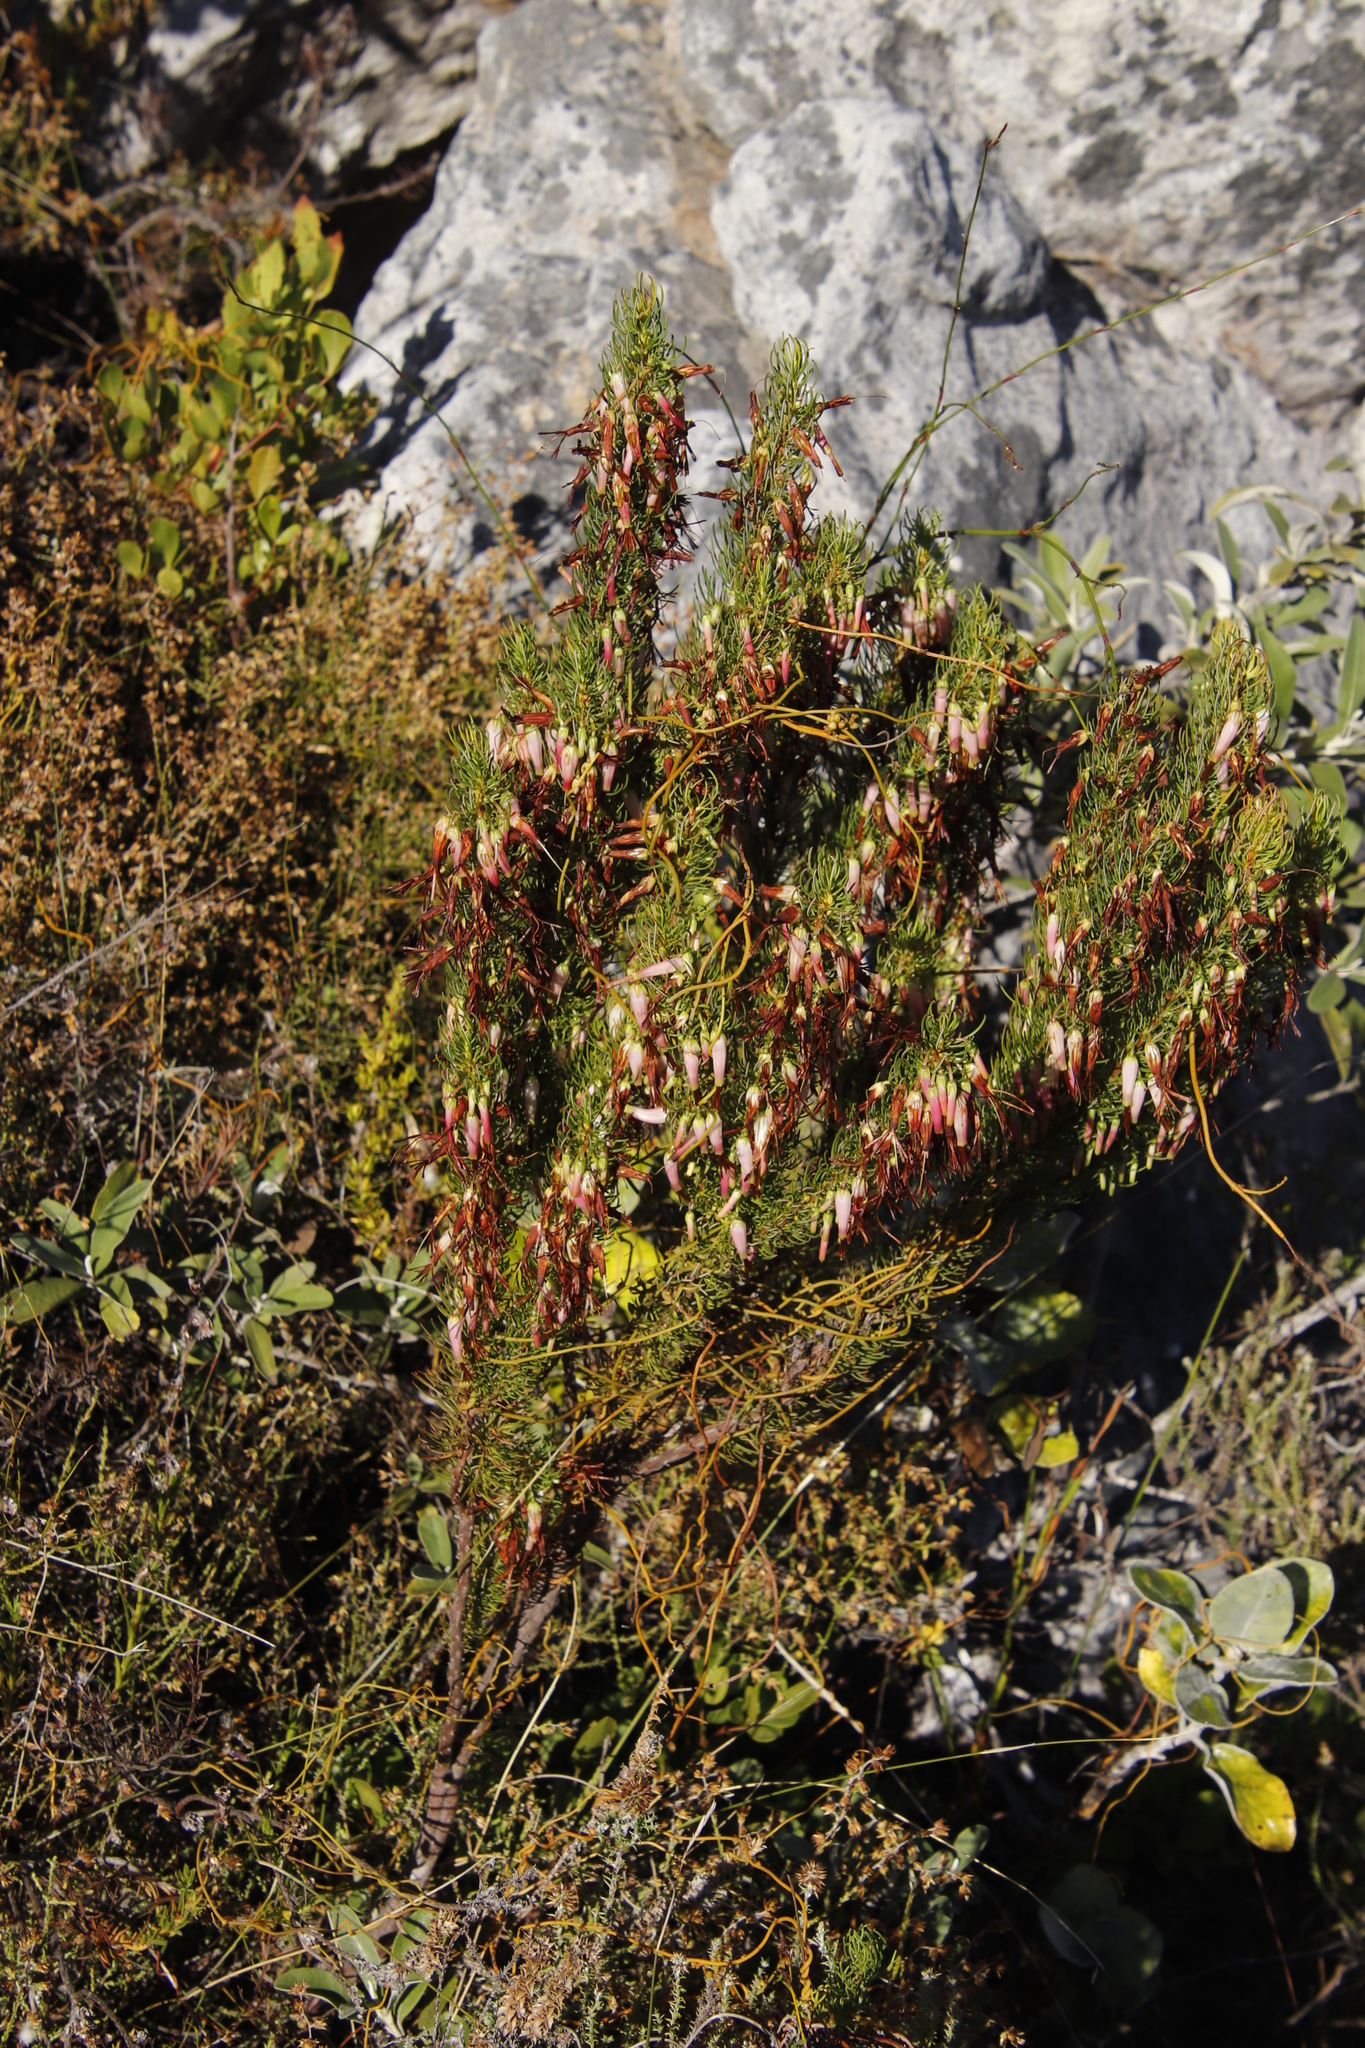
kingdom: Plantae
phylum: Tracheophyta
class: Magnoliopsida
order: Ericales
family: Ericaceae
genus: Erica
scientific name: Erica plukenetii
